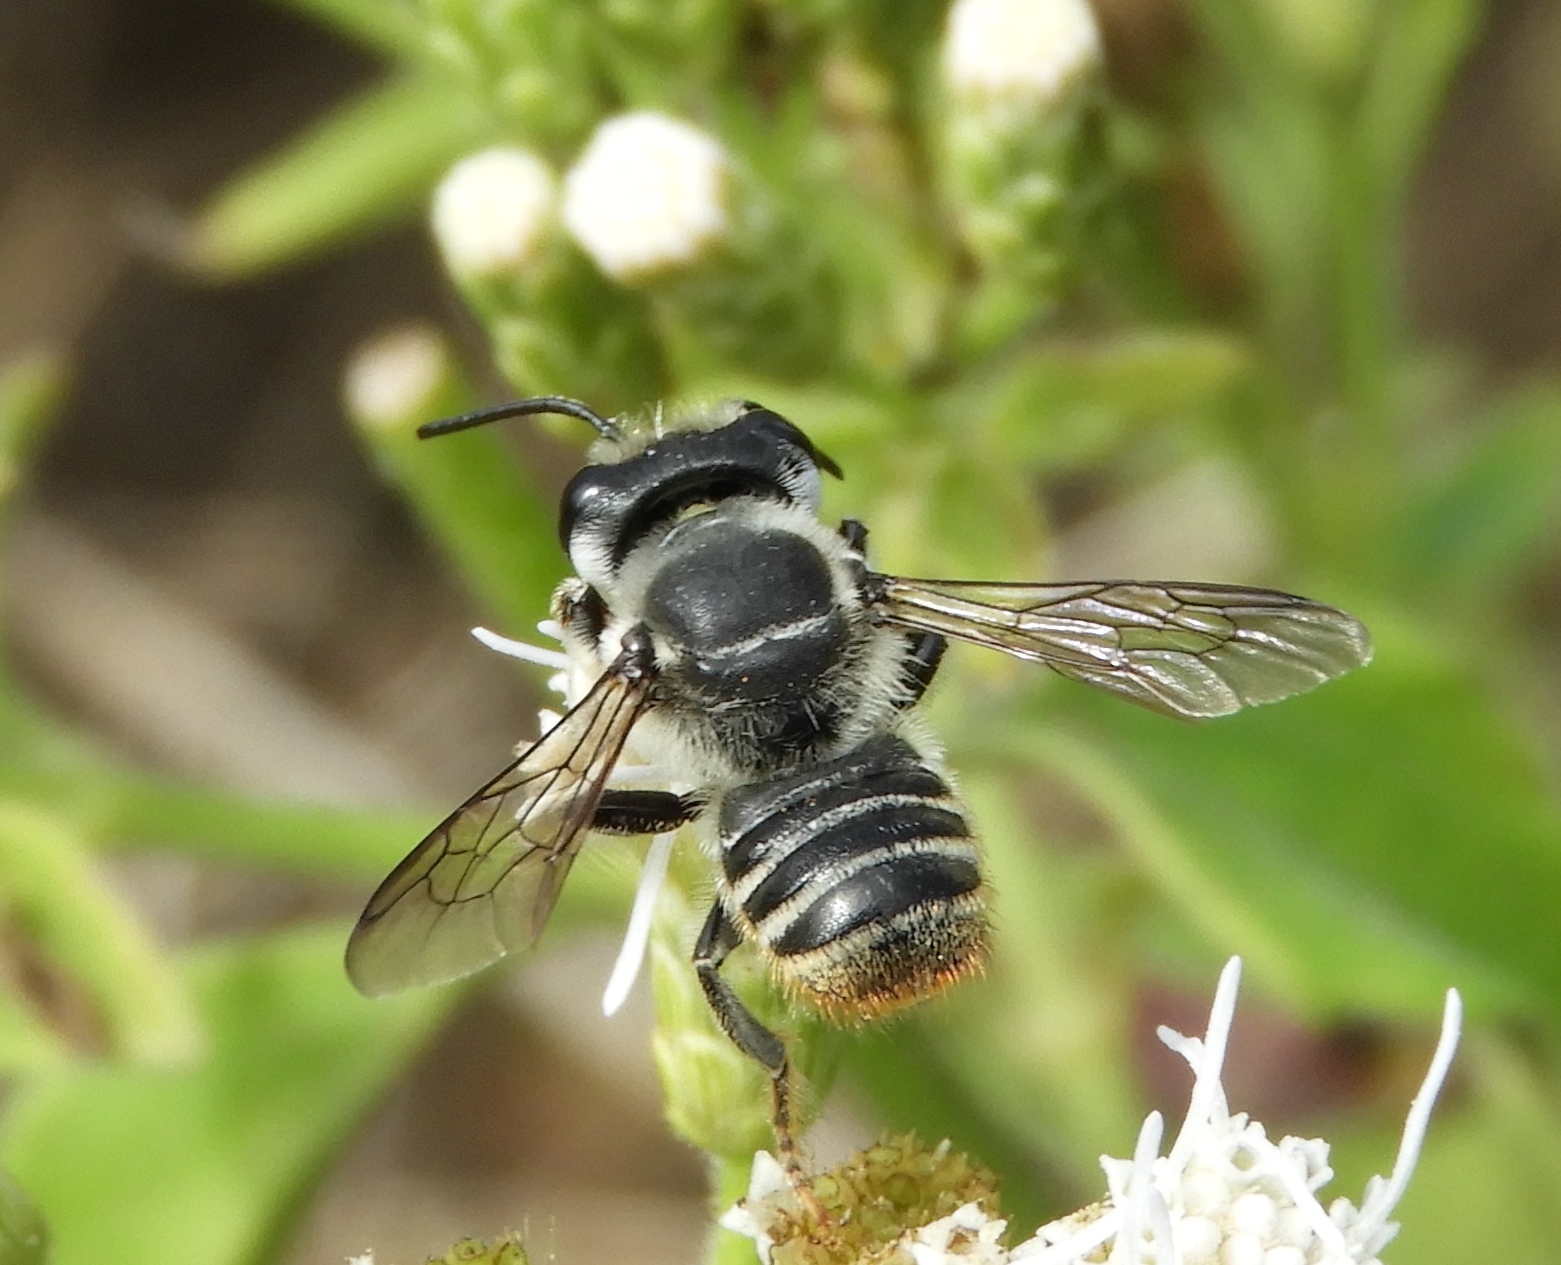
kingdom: Animalia
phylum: Arthropoda
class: Insecta
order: Hymenoptera
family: Megachilidae
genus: Megachile
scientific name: Megachile
